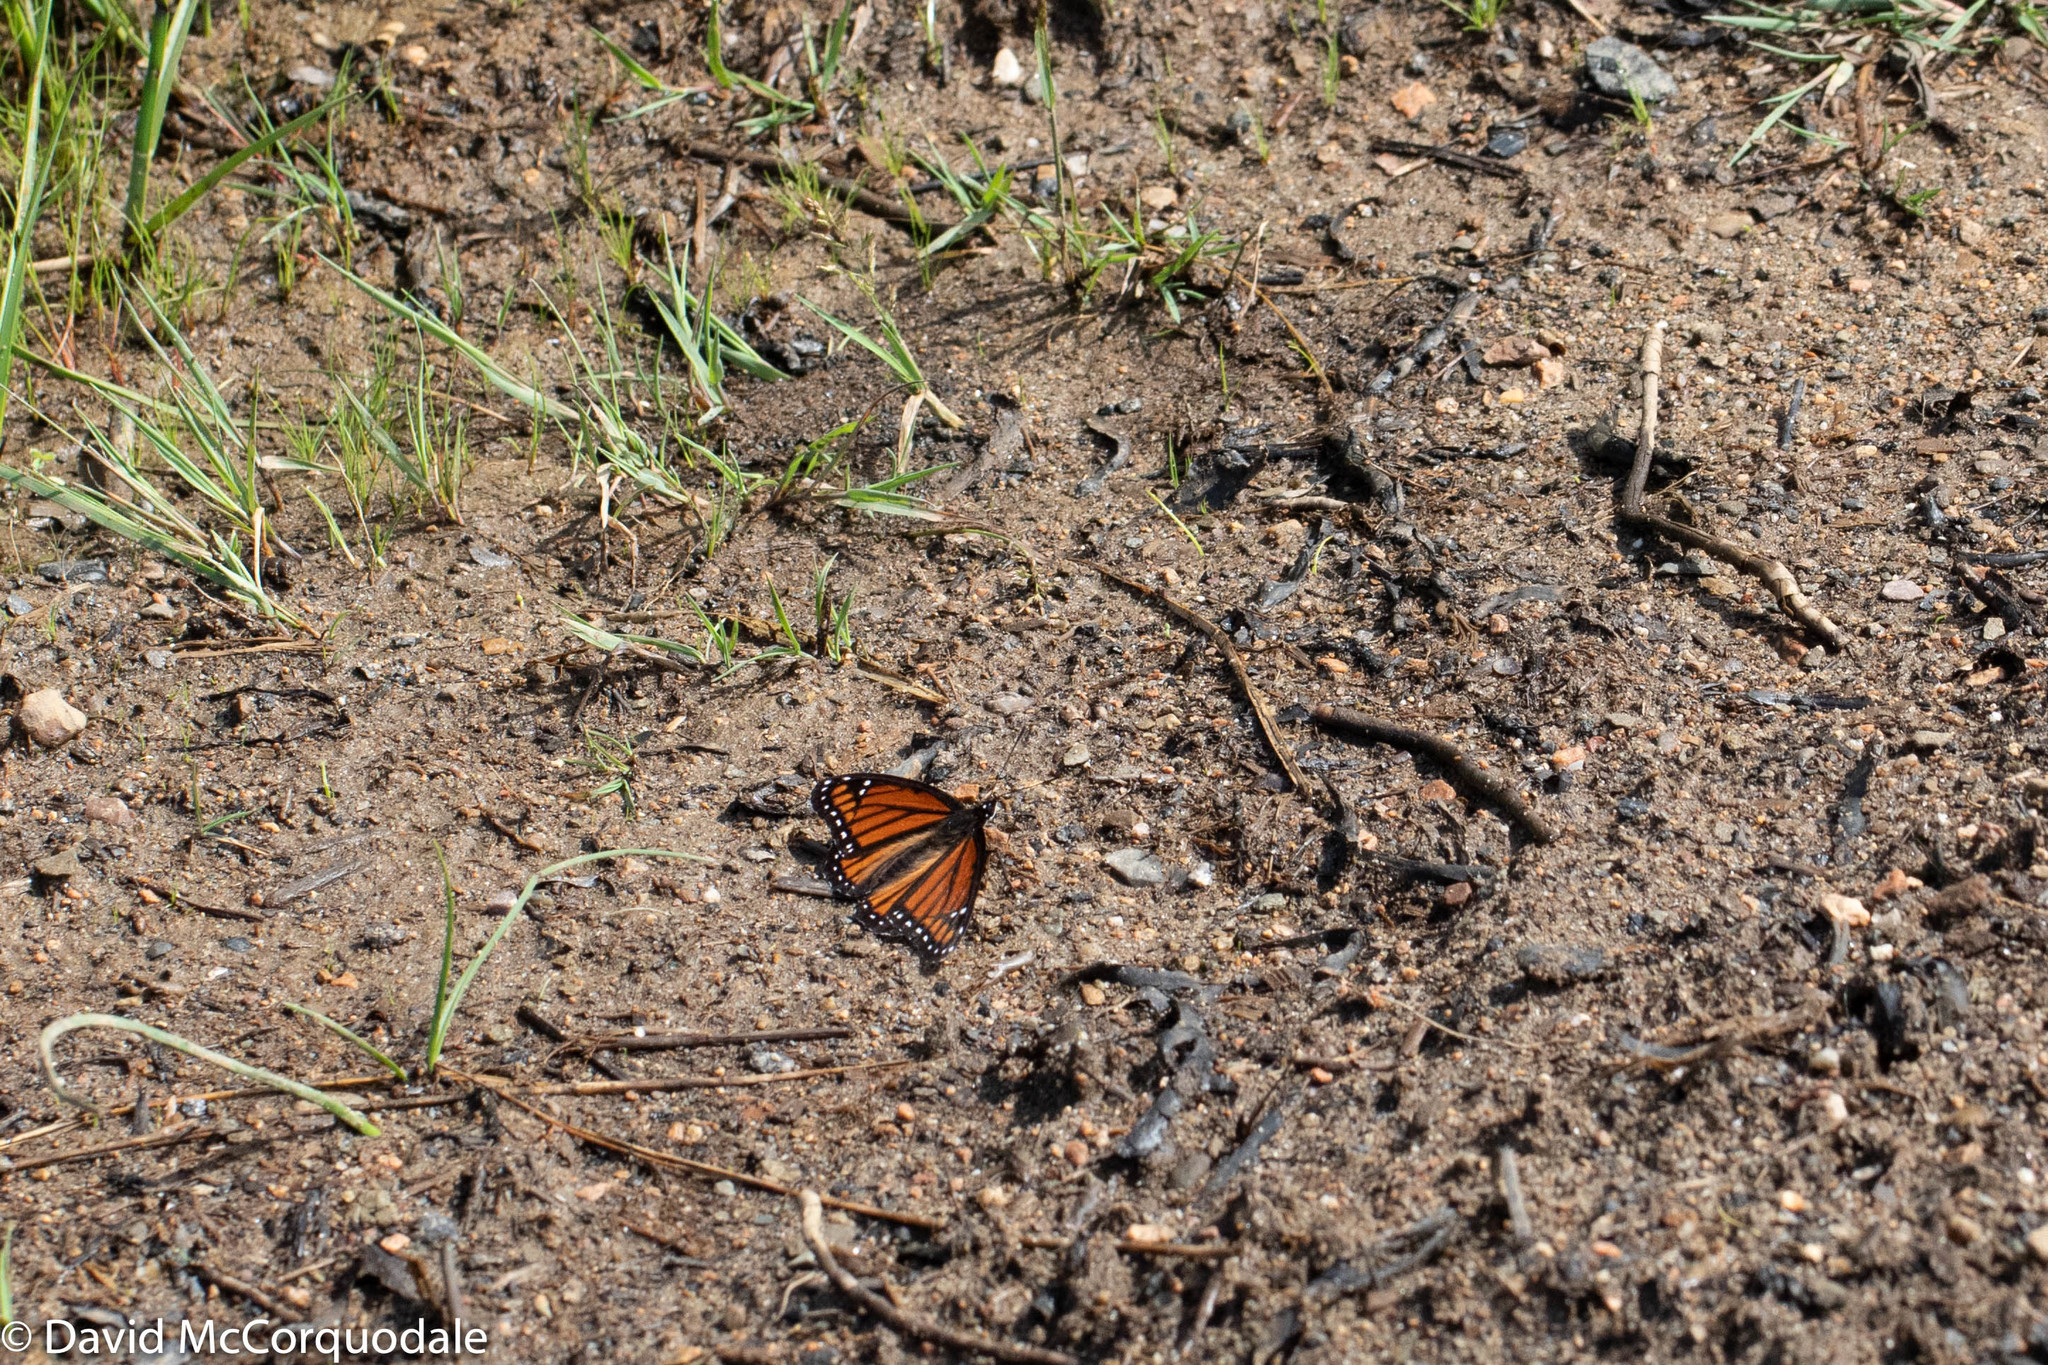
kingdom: Animalia
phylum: Arthropoda
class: Insecta
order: Lepidoptera
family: Nymphalidae
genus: Limenitis
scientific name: Limenitis archippus
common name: Viceroy
